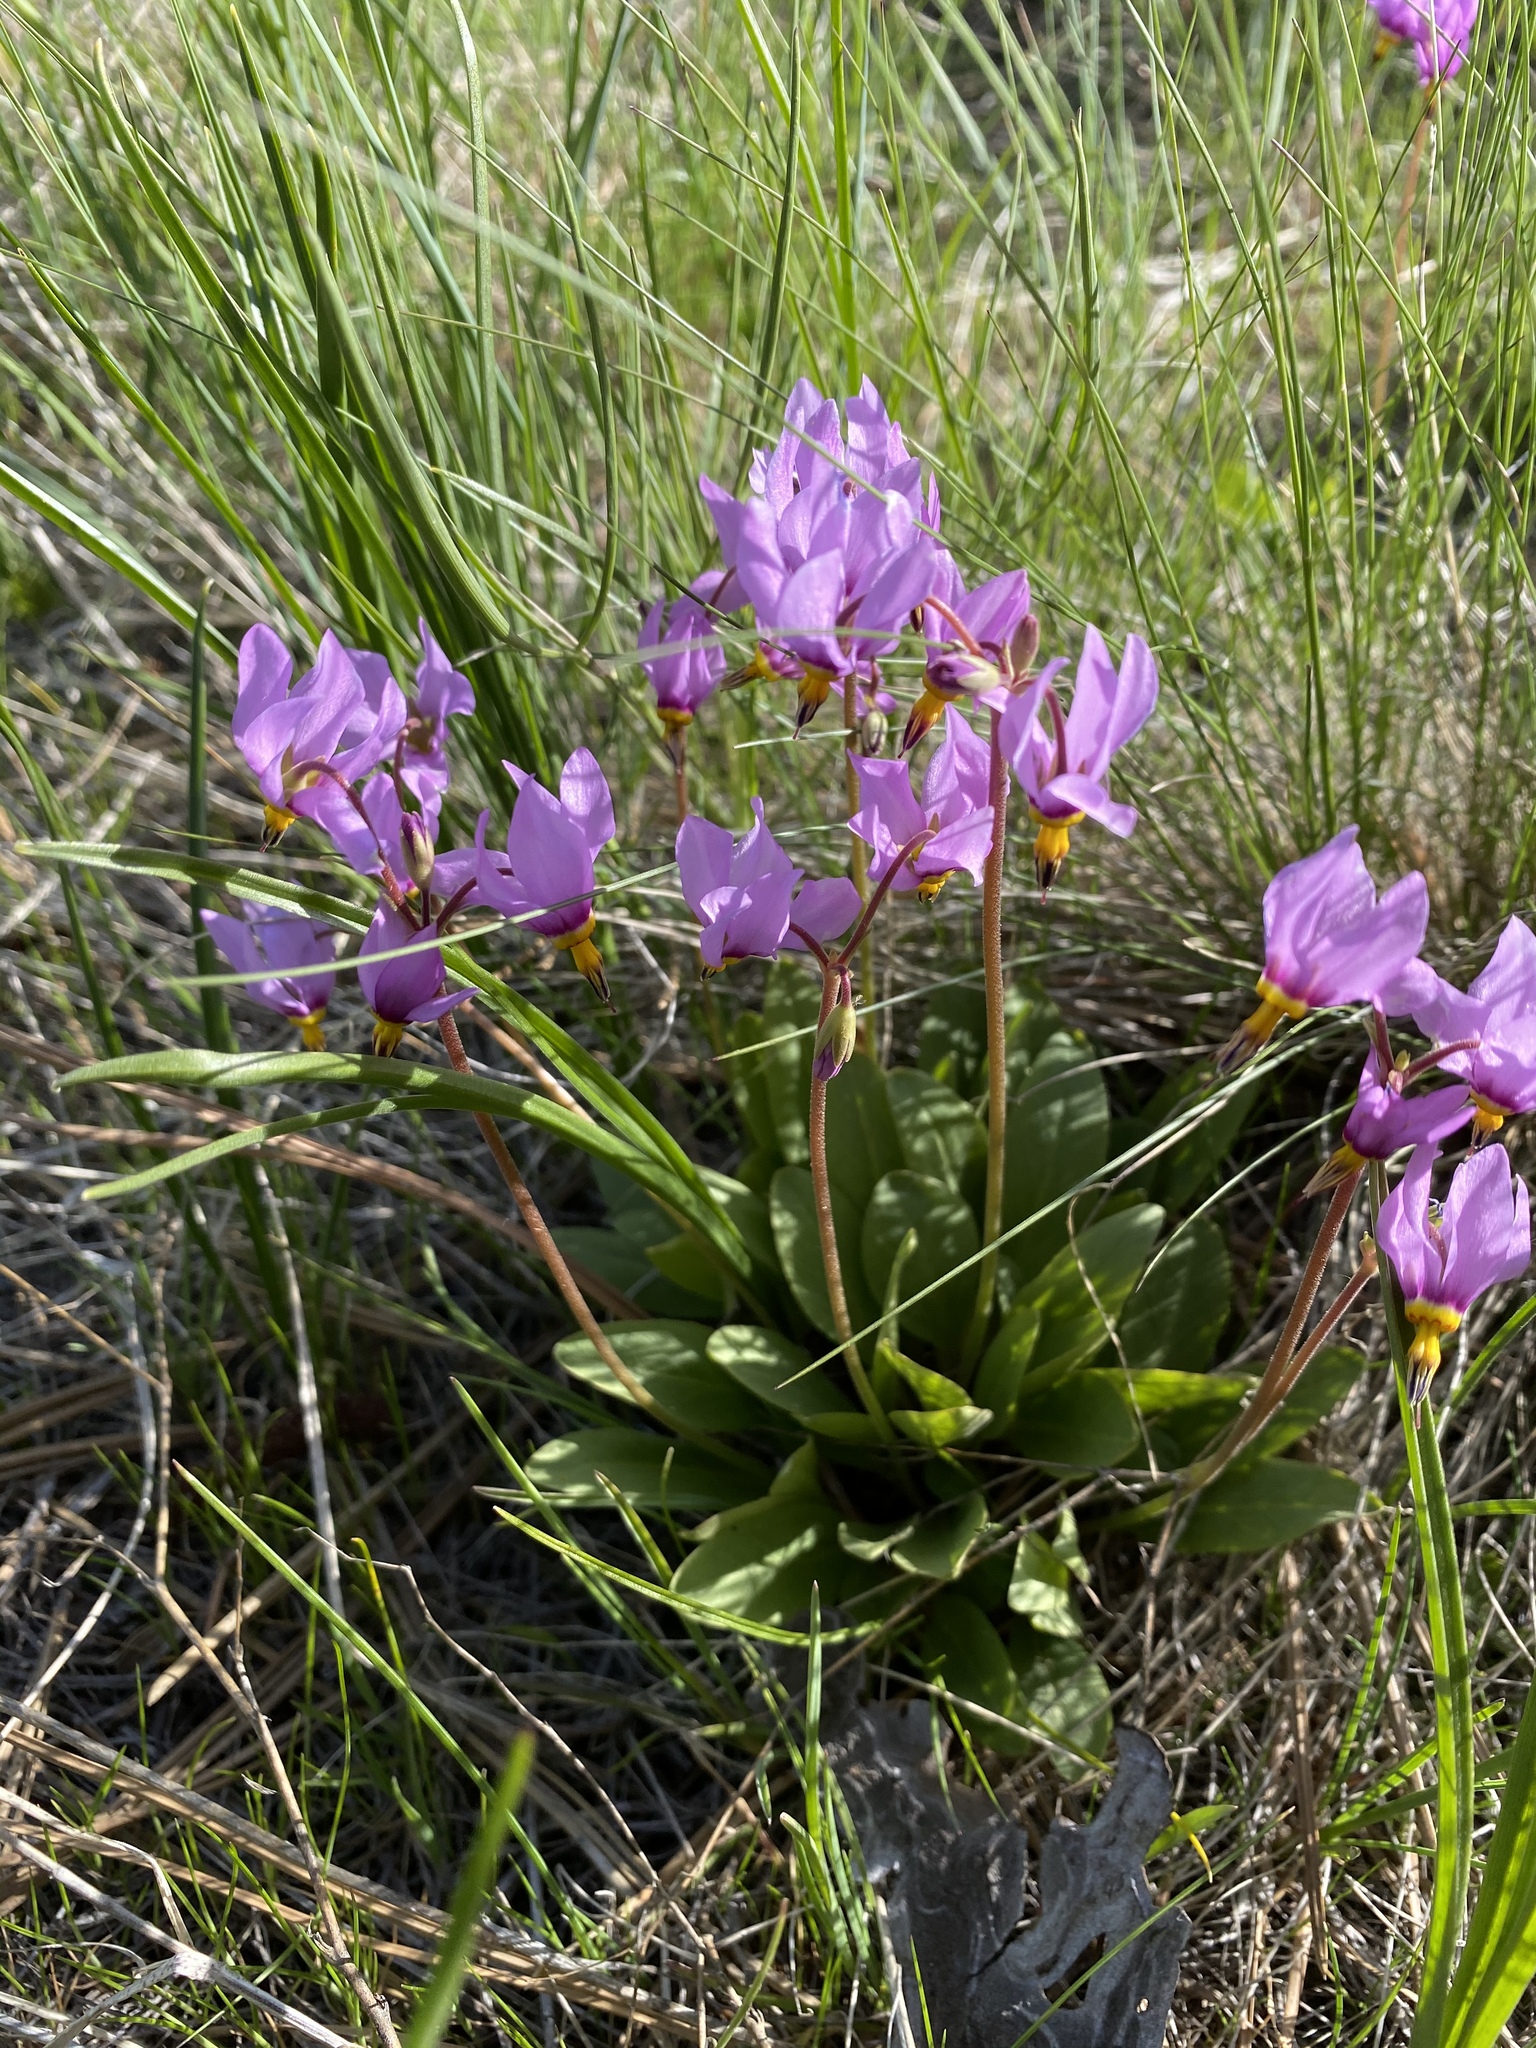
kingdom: Plantae
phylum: Tracheophyta
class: Magnoliopsida
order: Ericales
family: Primulaceae
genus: Dodecatheon
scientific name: Dodecatheon pulchellum
